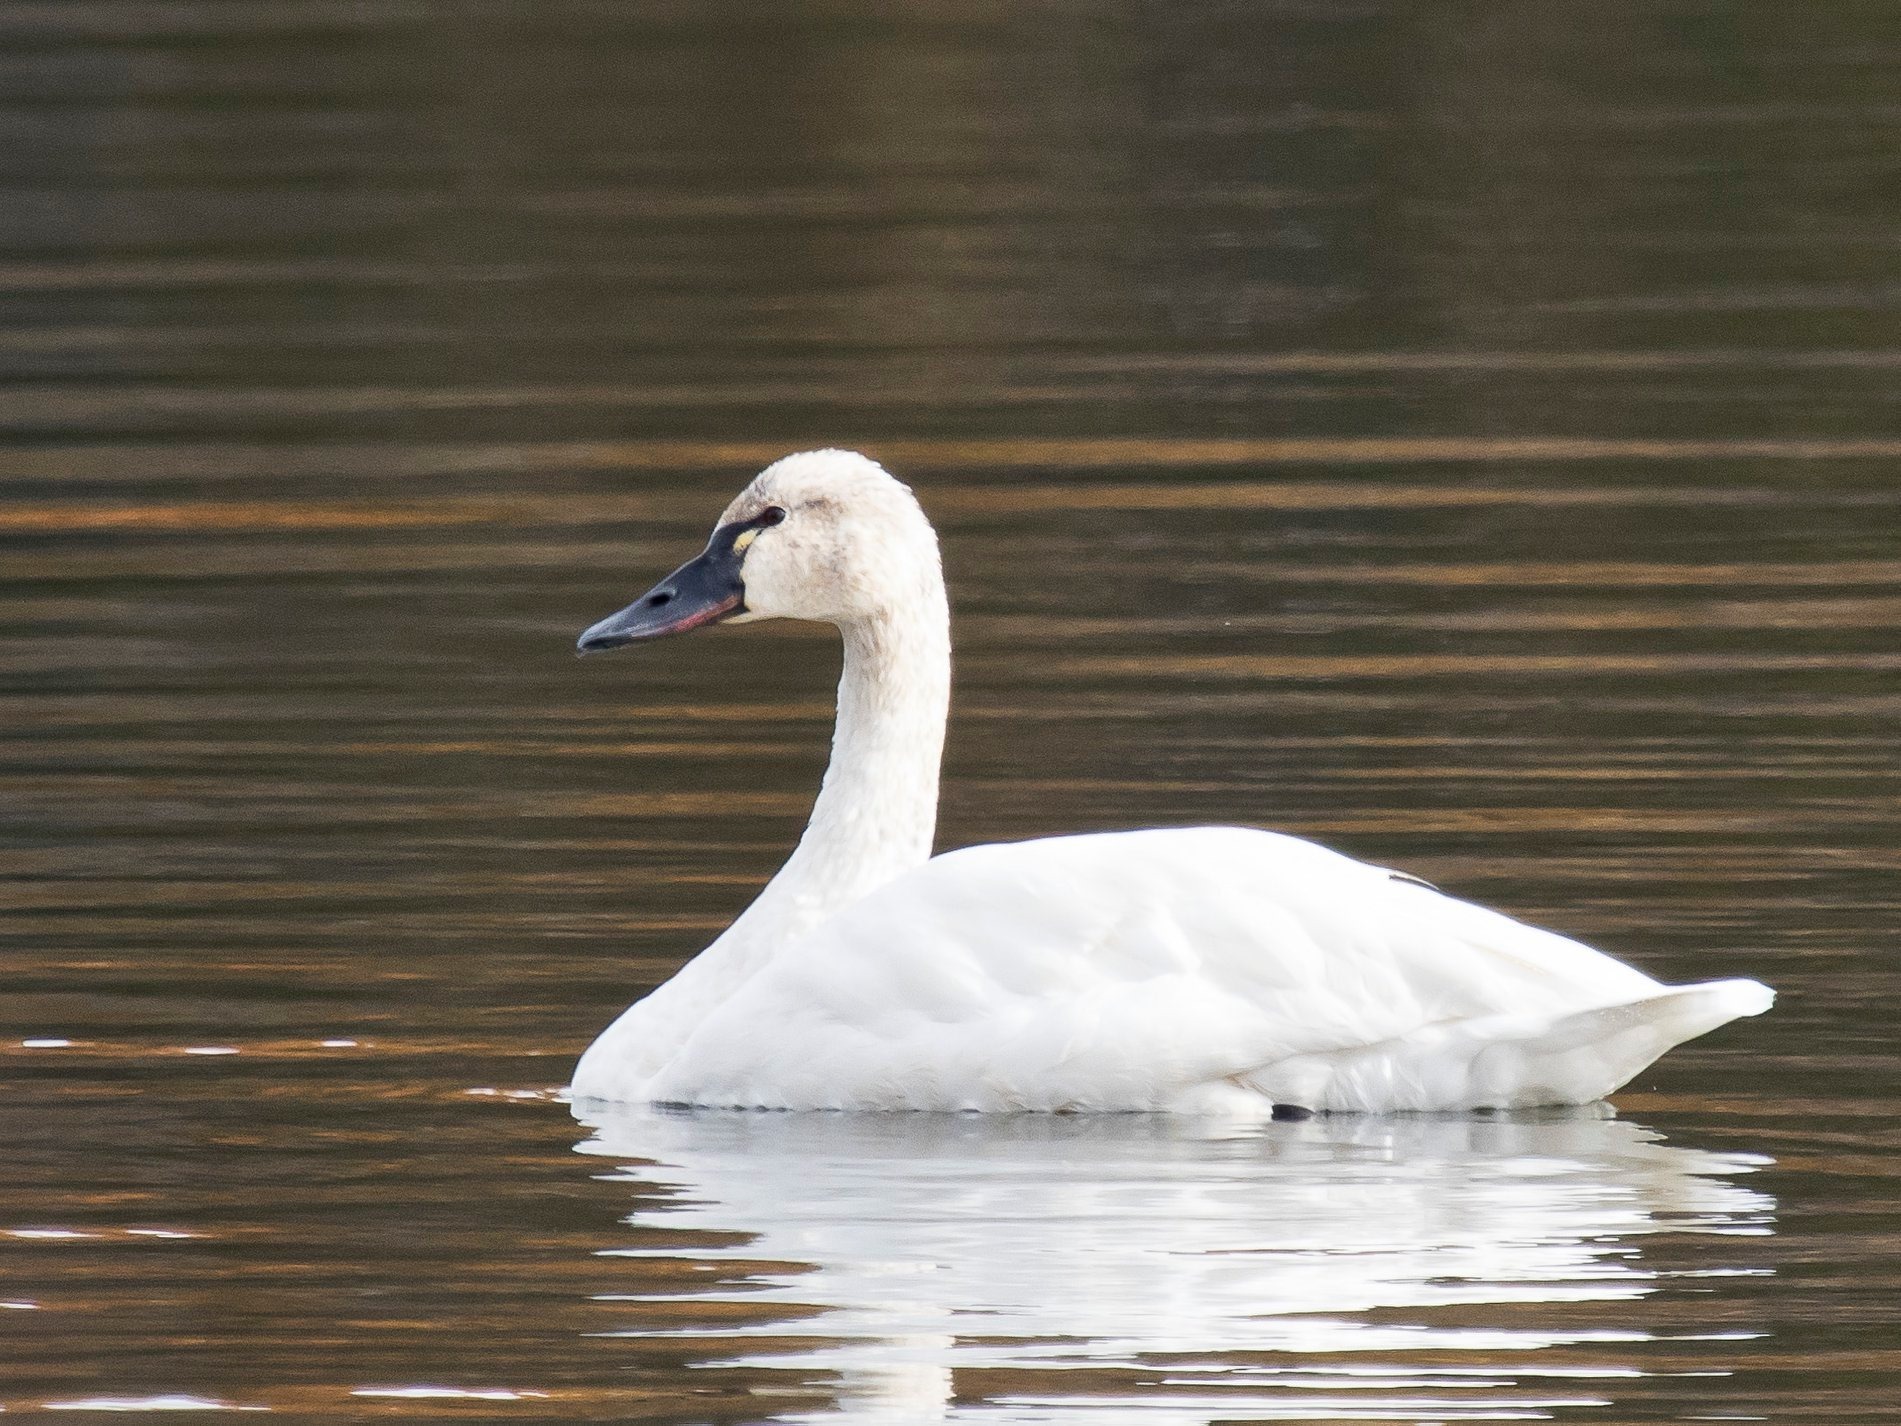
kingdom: Animalia
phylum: Chordata
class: Aves
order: Anseriformes
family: Anatidae
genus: Cygnus
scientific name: Cygnus columbianus
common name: Tundra swan
